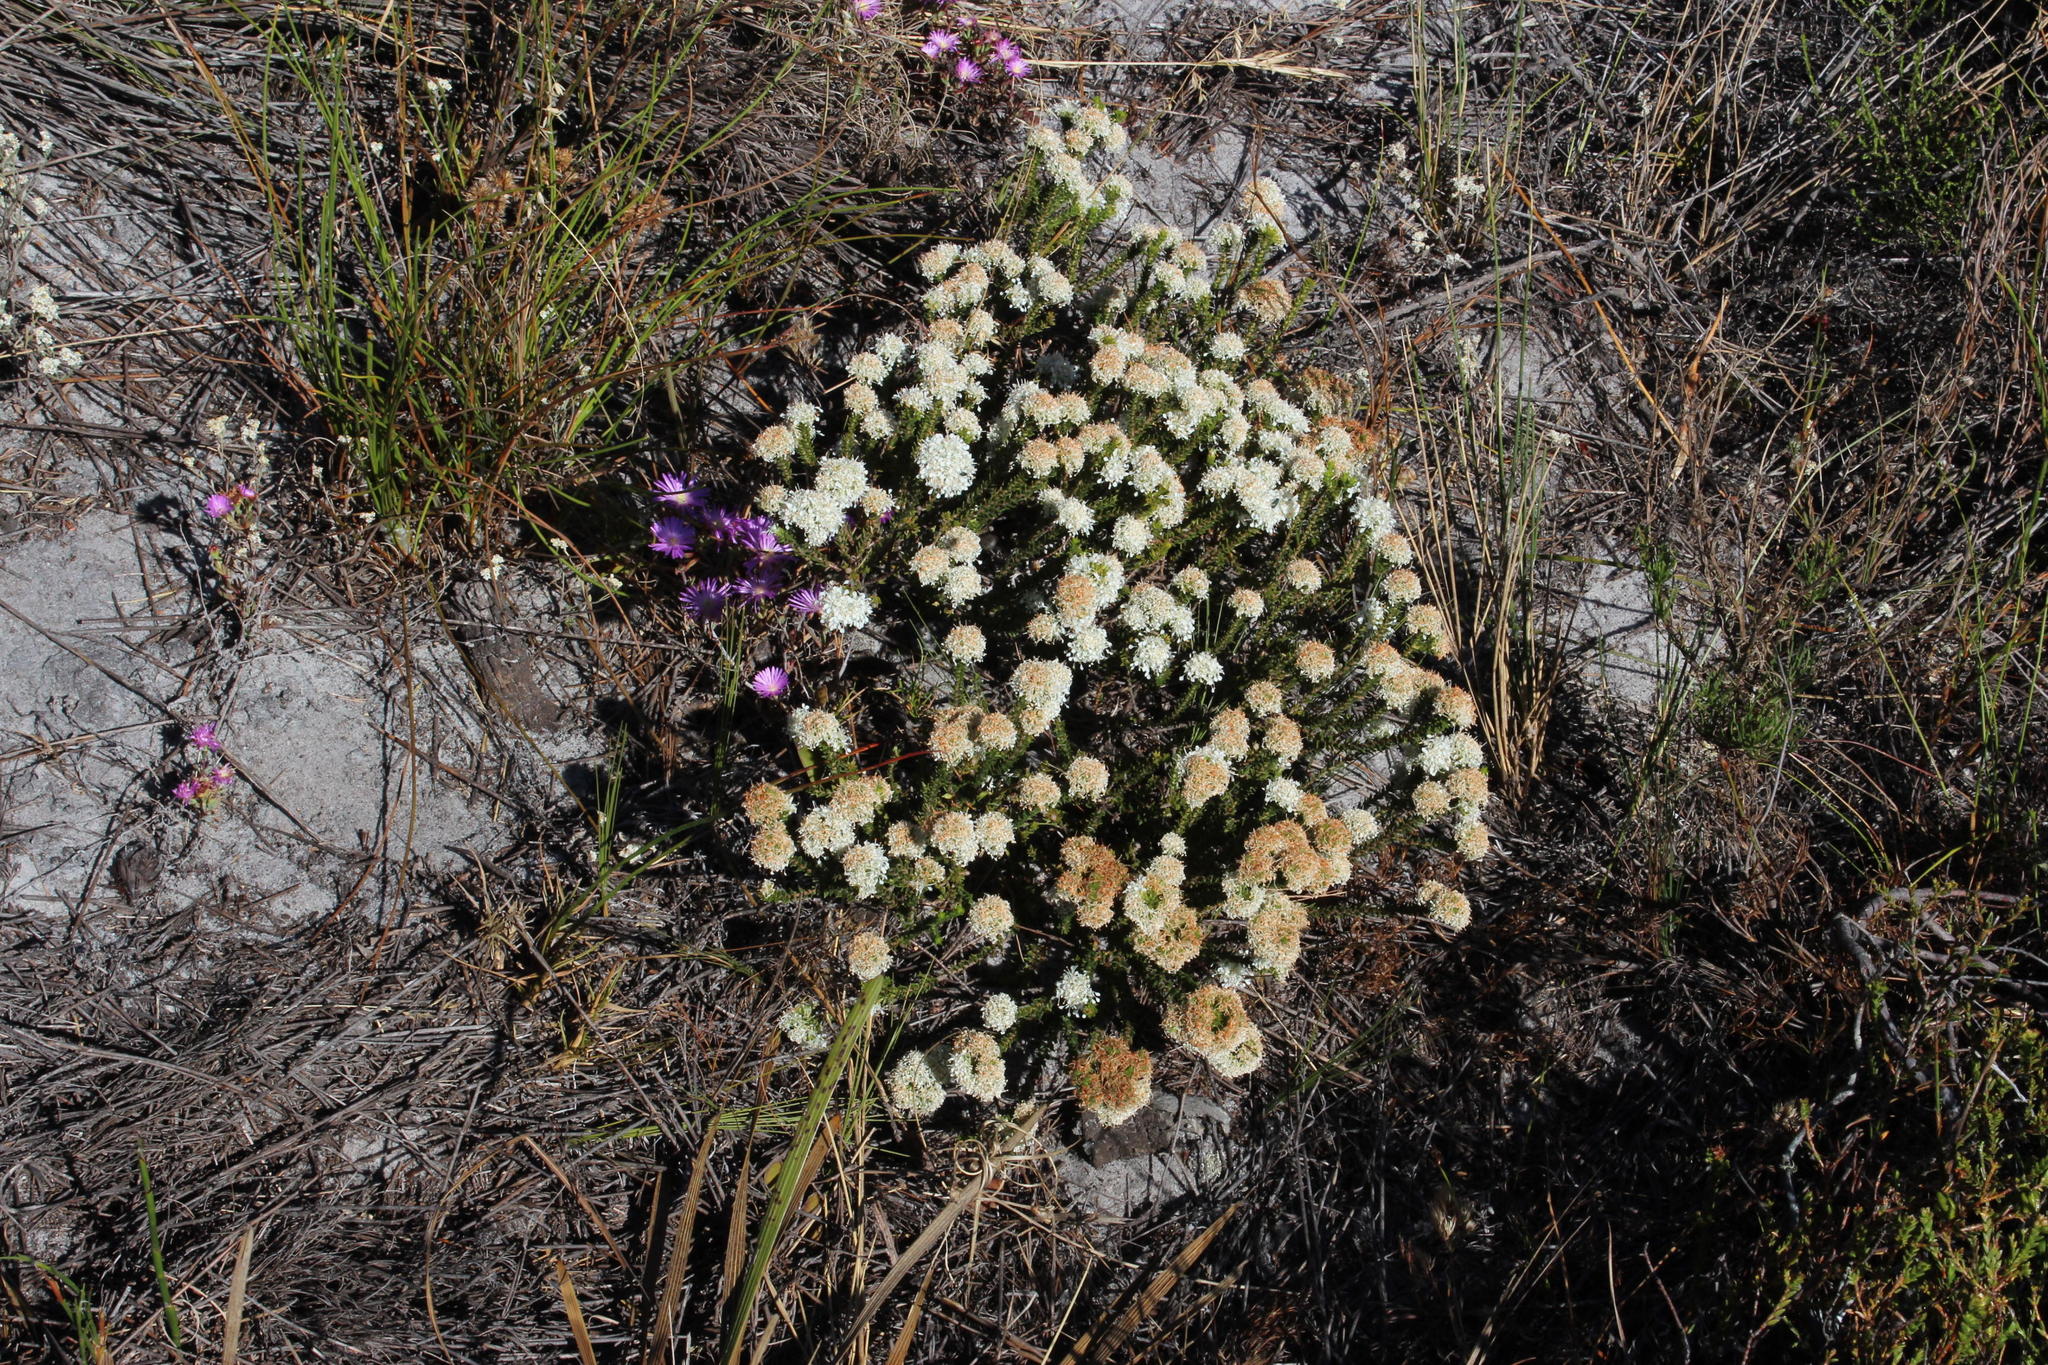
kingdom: Plantae
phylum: Tracheophyta
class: Magnoliopsida
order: Sapindales
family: Rutaceae
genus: Agathosma
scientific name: Agathosma imbricata
